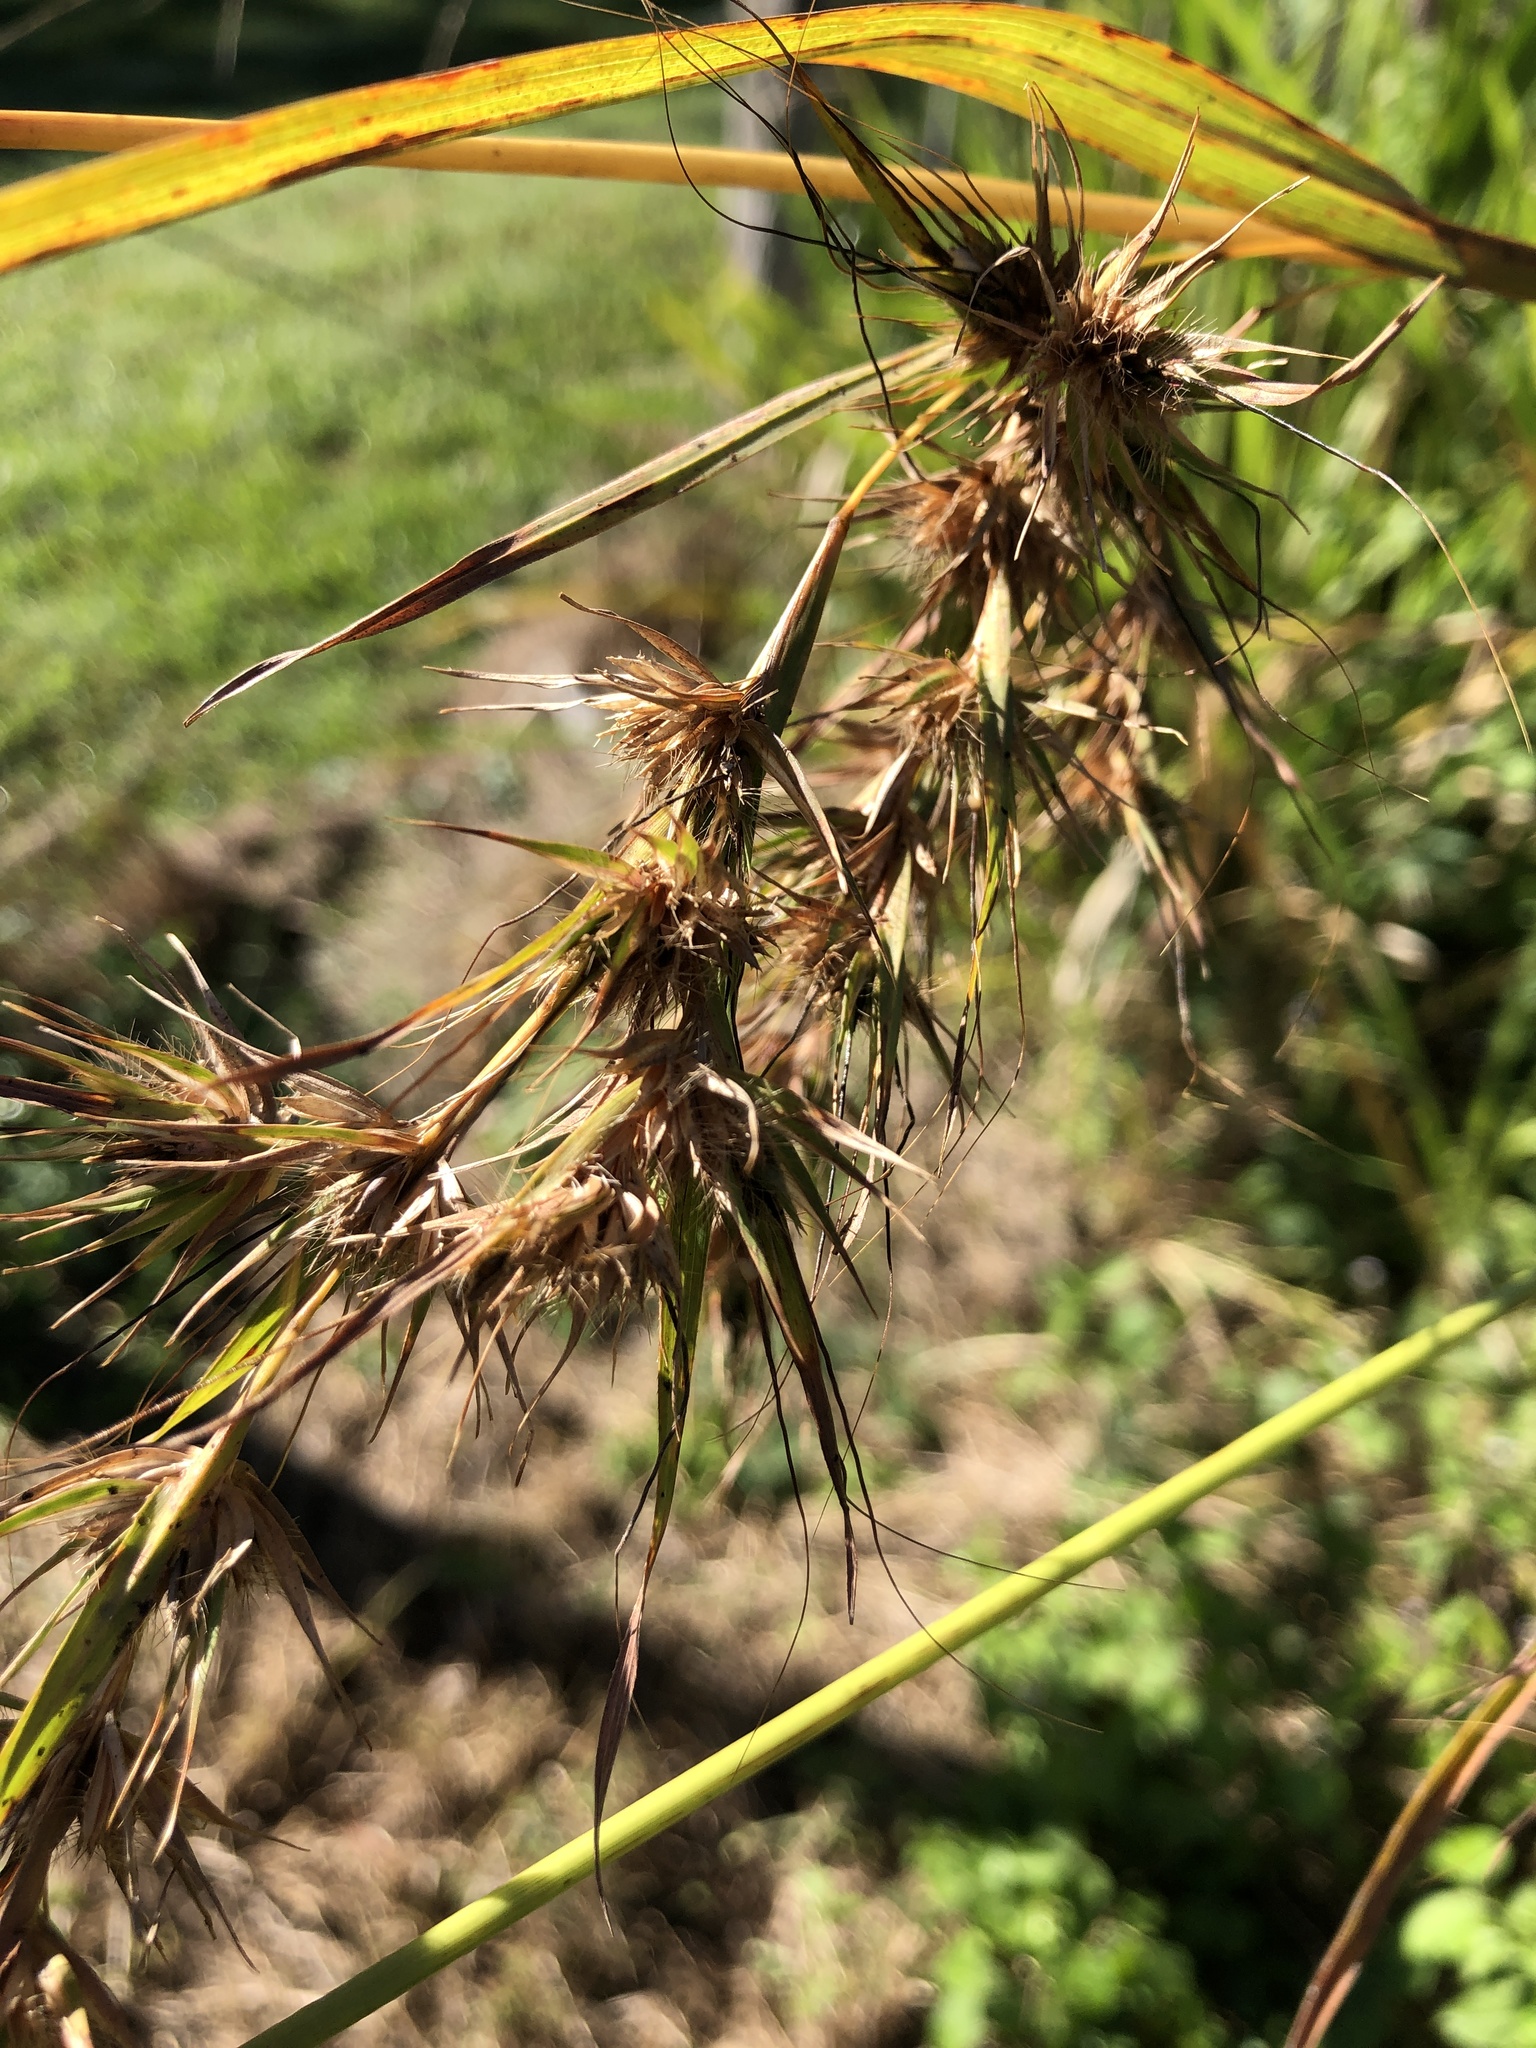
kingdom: Plantae
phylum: Tracheophyta
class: Liliopsida
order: Poales
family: Poaceae
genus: Themeda
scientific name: Themeda quadrivalvis
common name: Kangaroo grass
